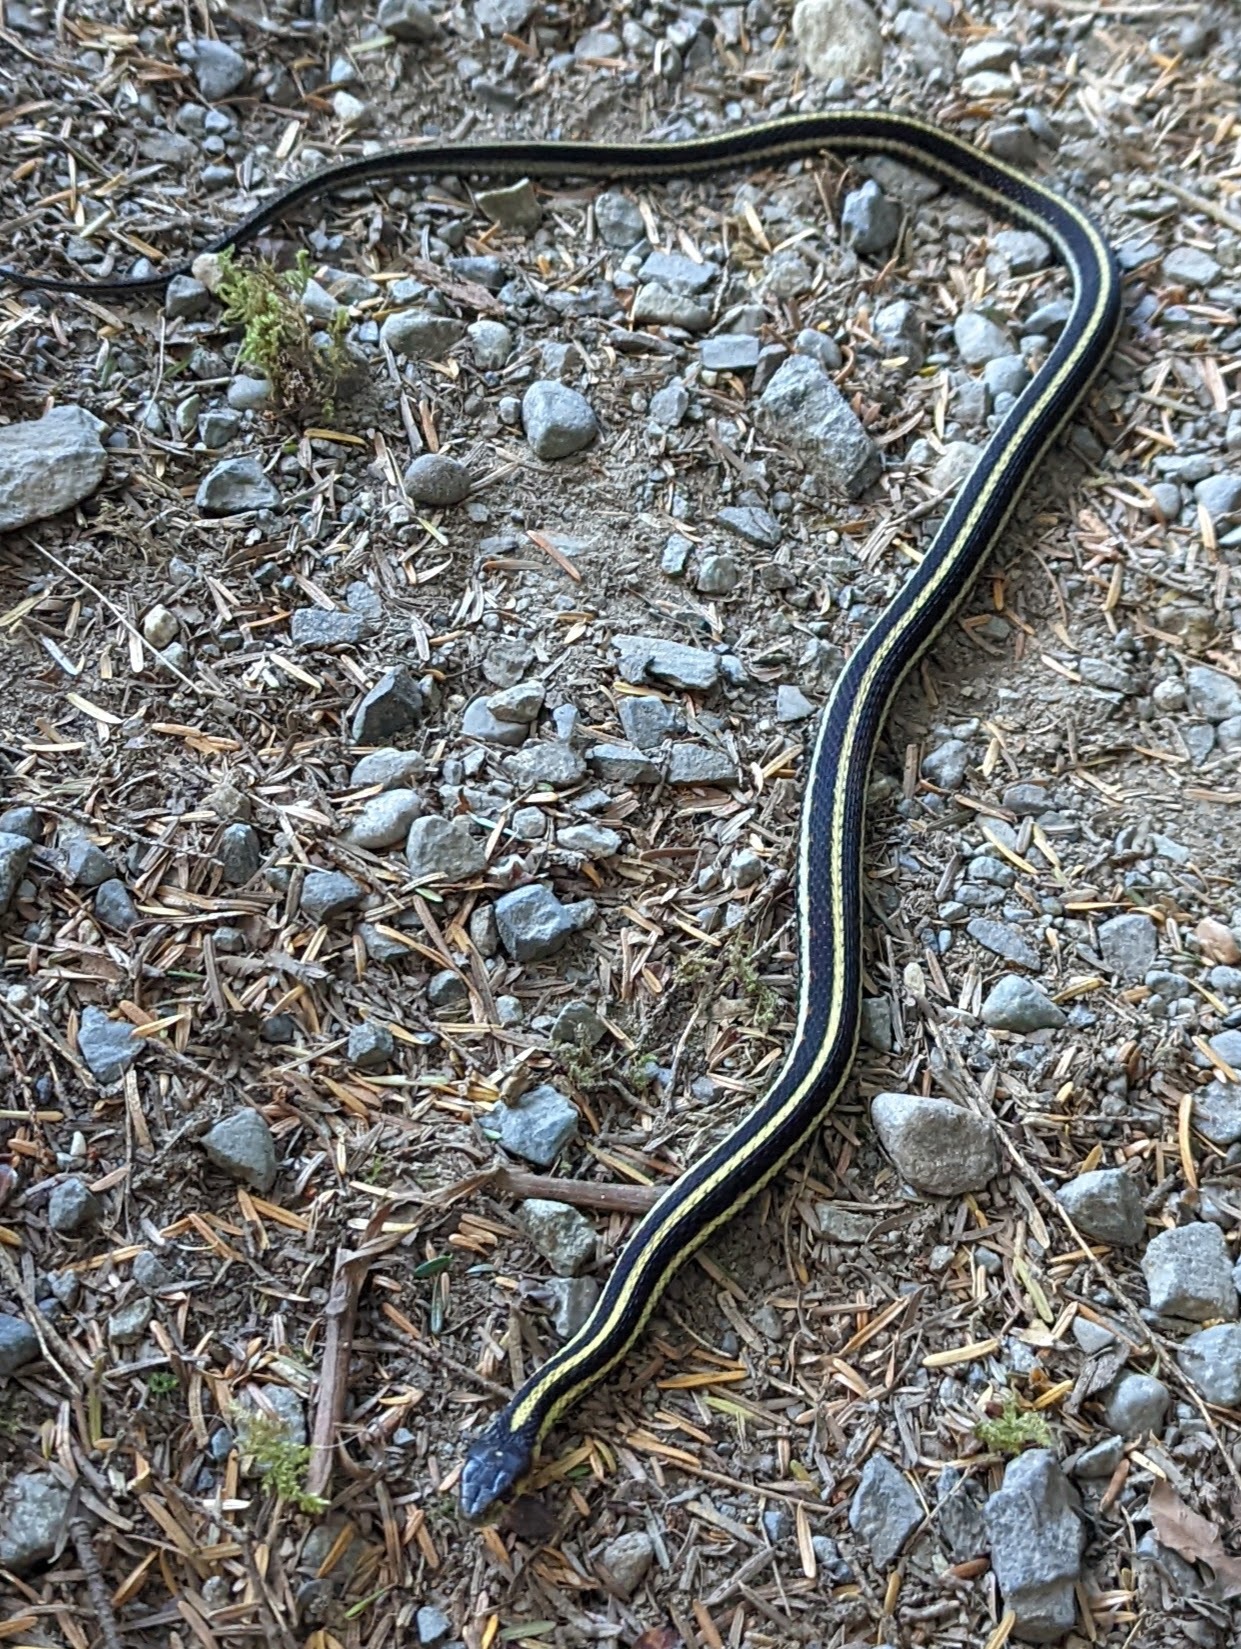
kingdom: Animalia
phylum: Chordata
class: Squamata
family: Colubridae
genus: Thamnophis
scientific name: Thamnophis sirtalis
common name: Common garter snake
